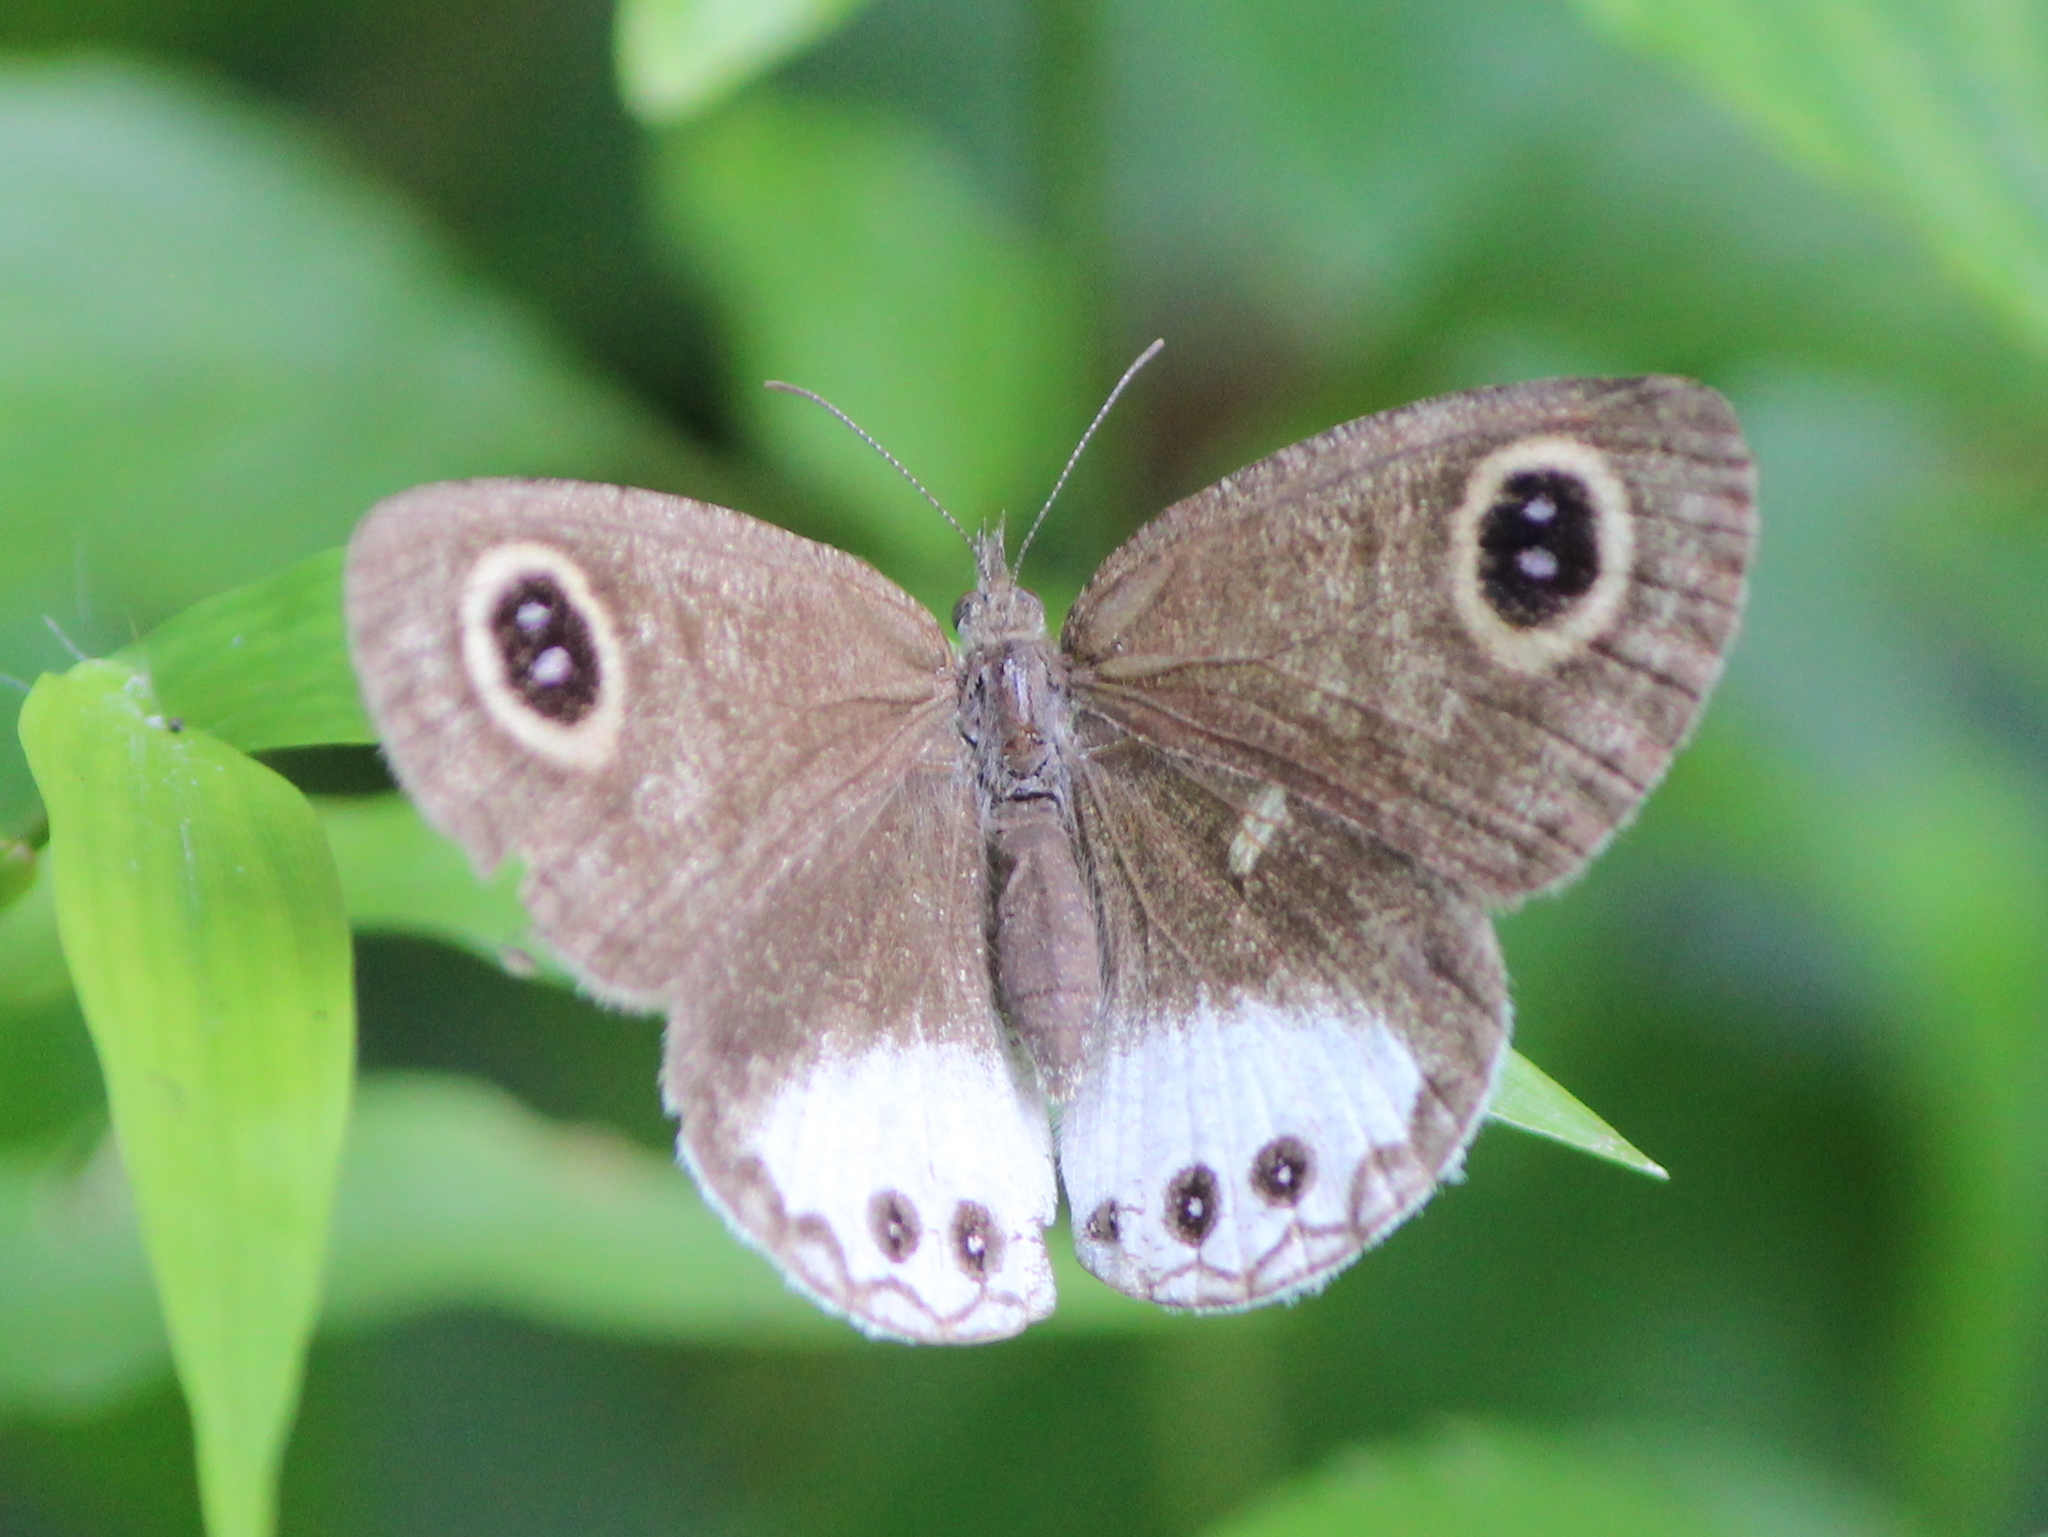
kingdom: Animalia
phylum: Arthropoda
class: Insecta
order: Lepidoptera
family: Nymphalidae
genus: Ypthima
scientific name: Ypthima ceylonica
